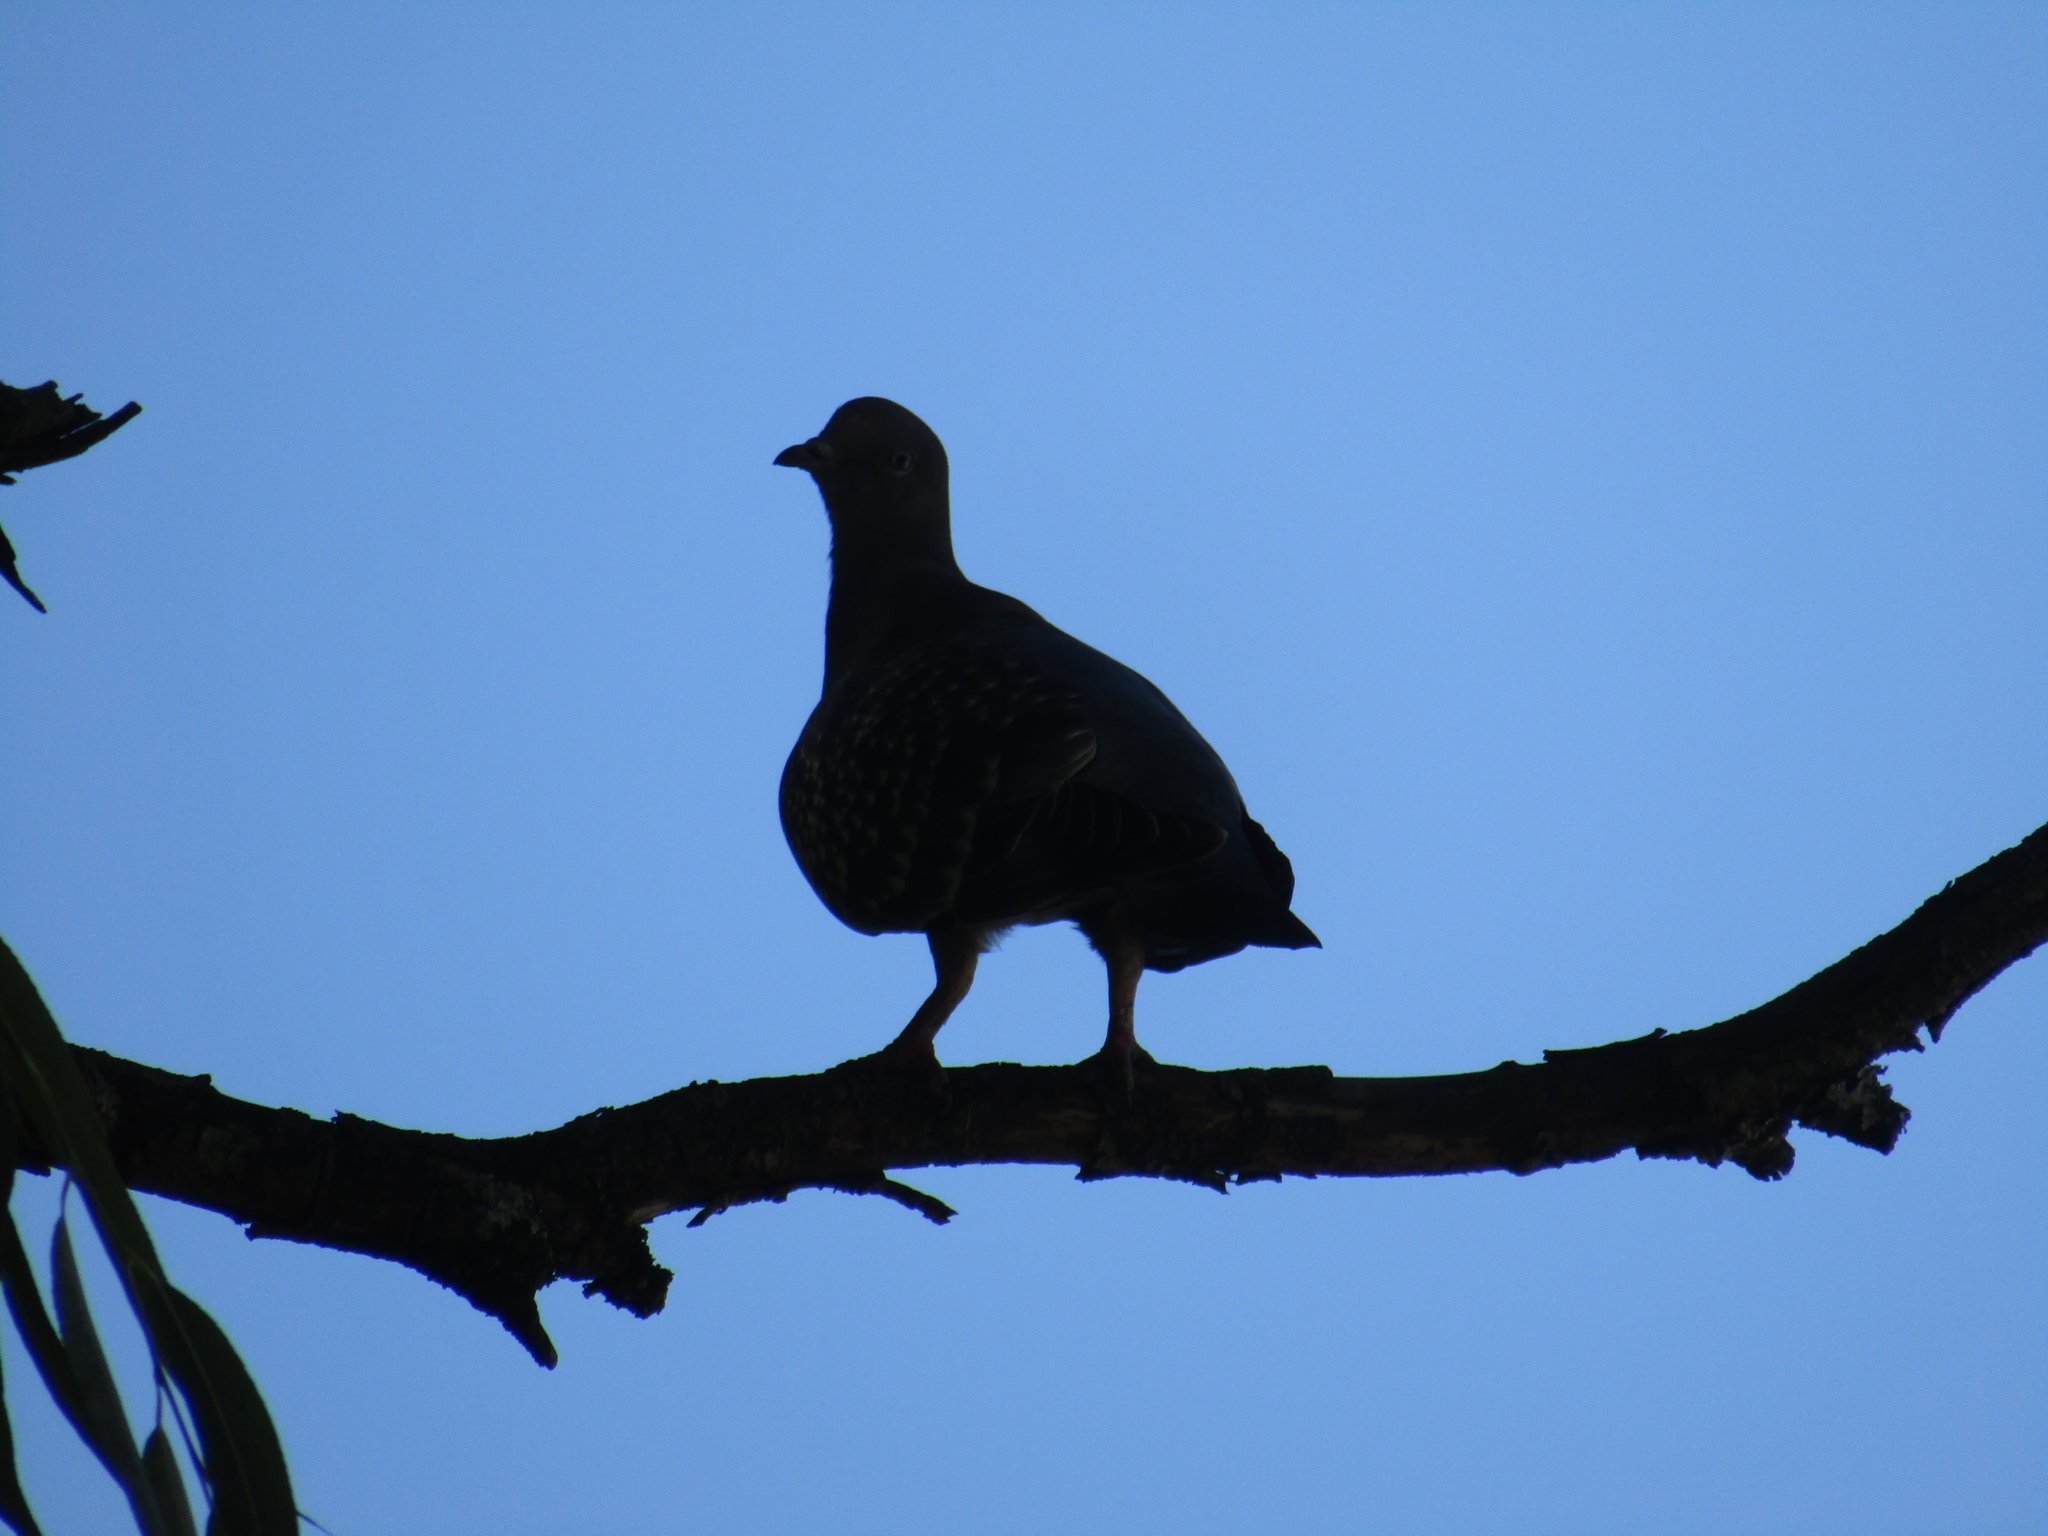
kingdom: Animalia
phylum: Chordata
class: Aves
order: Columbiformes
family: Columbidae
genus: Patagioenas
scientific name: Patagioenas maculosa
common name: Spot-winged pigeon
